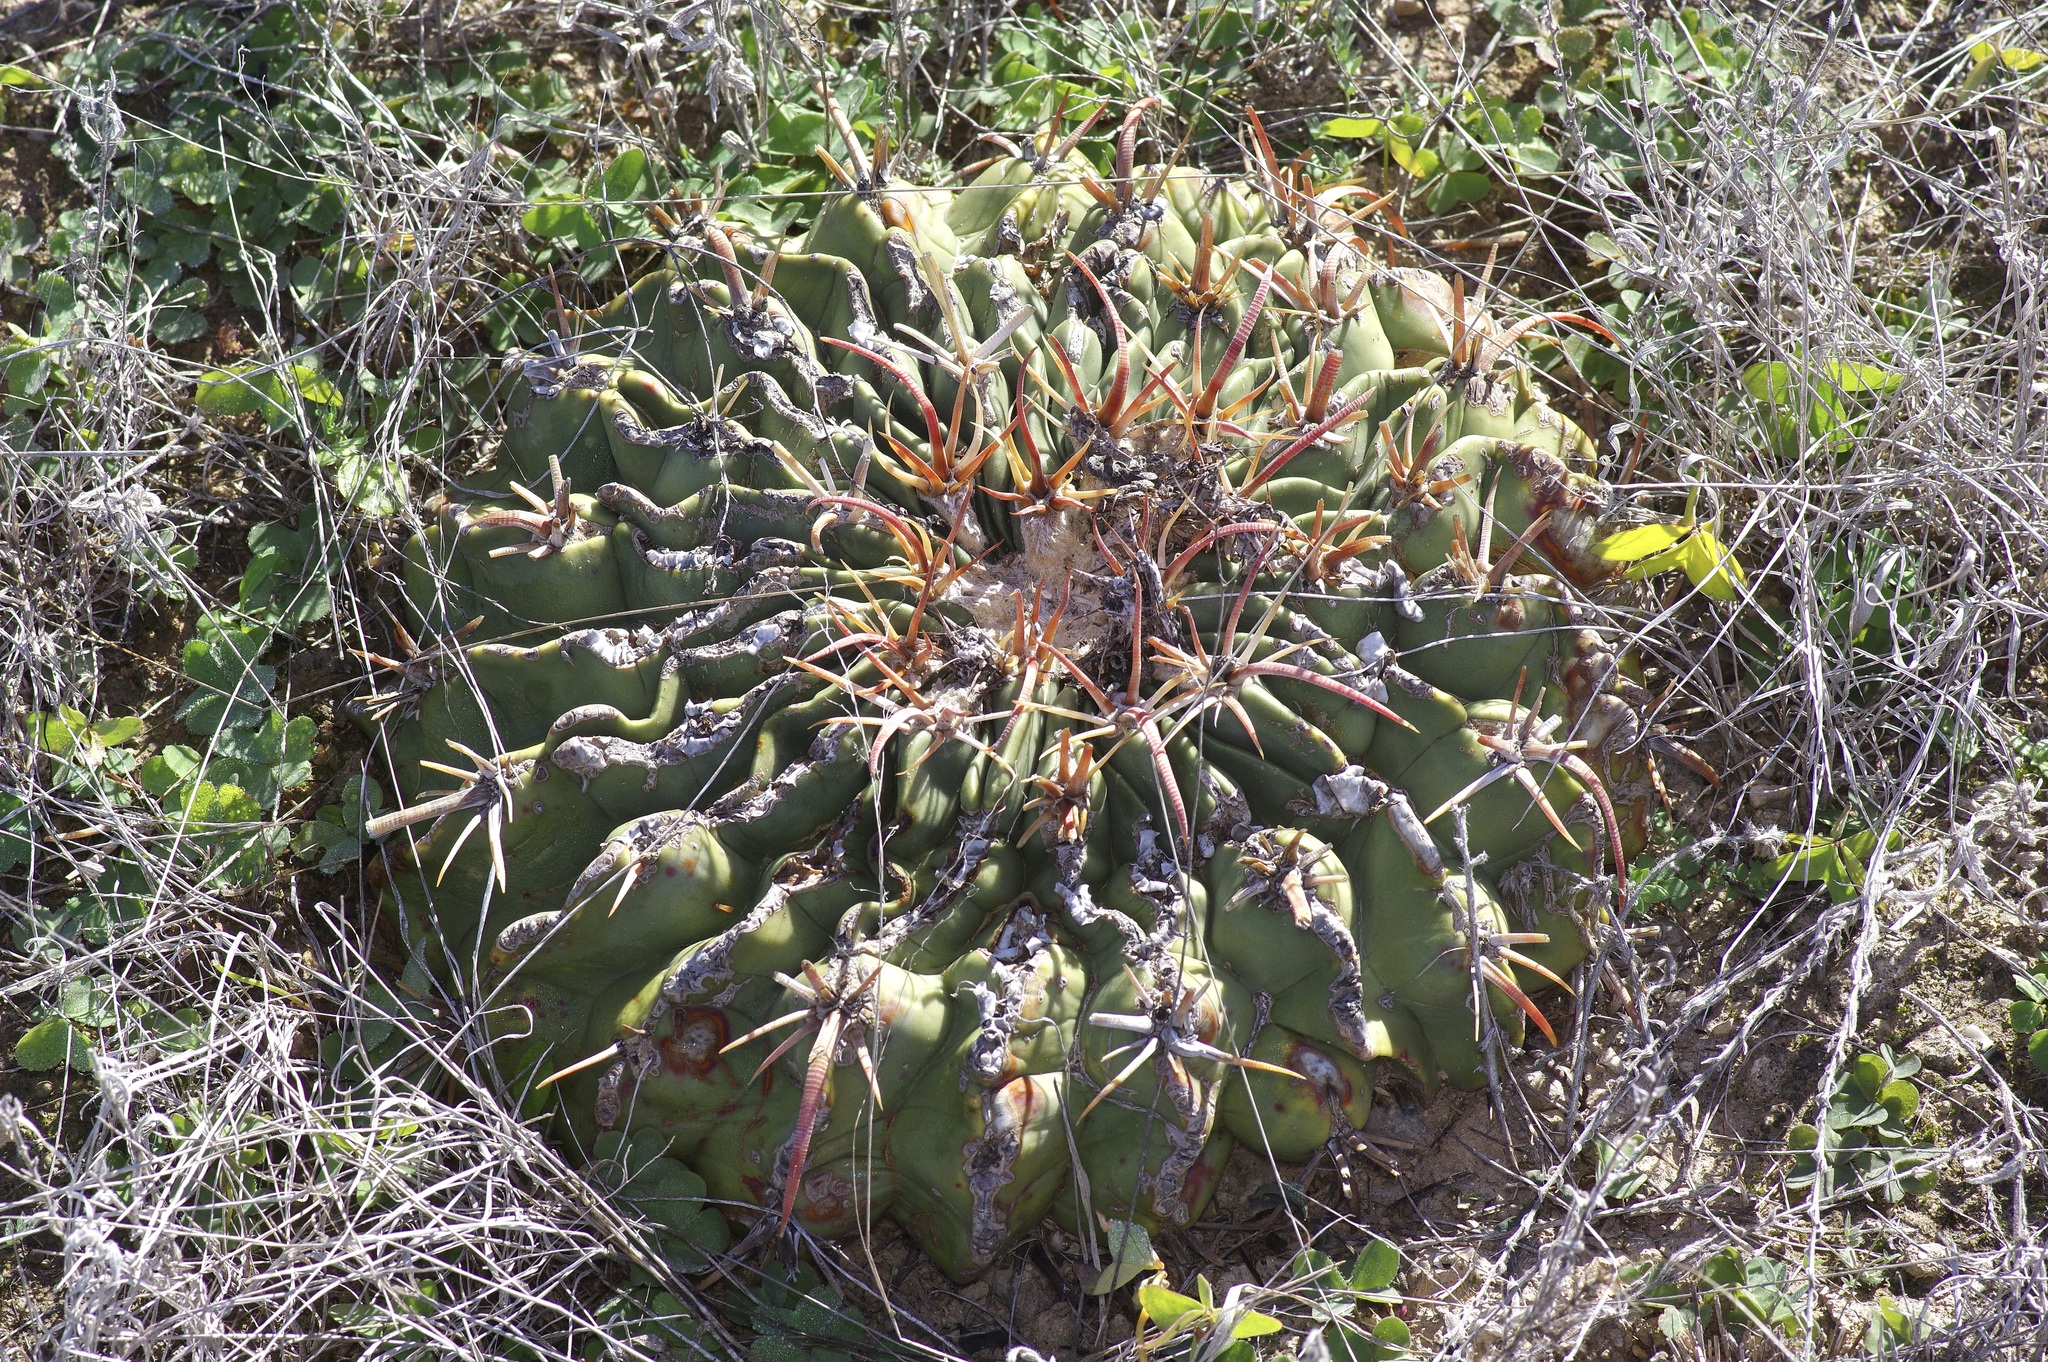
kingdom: Plantae
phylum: Tracheophyta
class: Magnoliopsida
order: Caryophyllales
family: Cactaceae
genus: Echinocactus
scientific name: Echinocactus texensis
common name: Devil's pincushion
